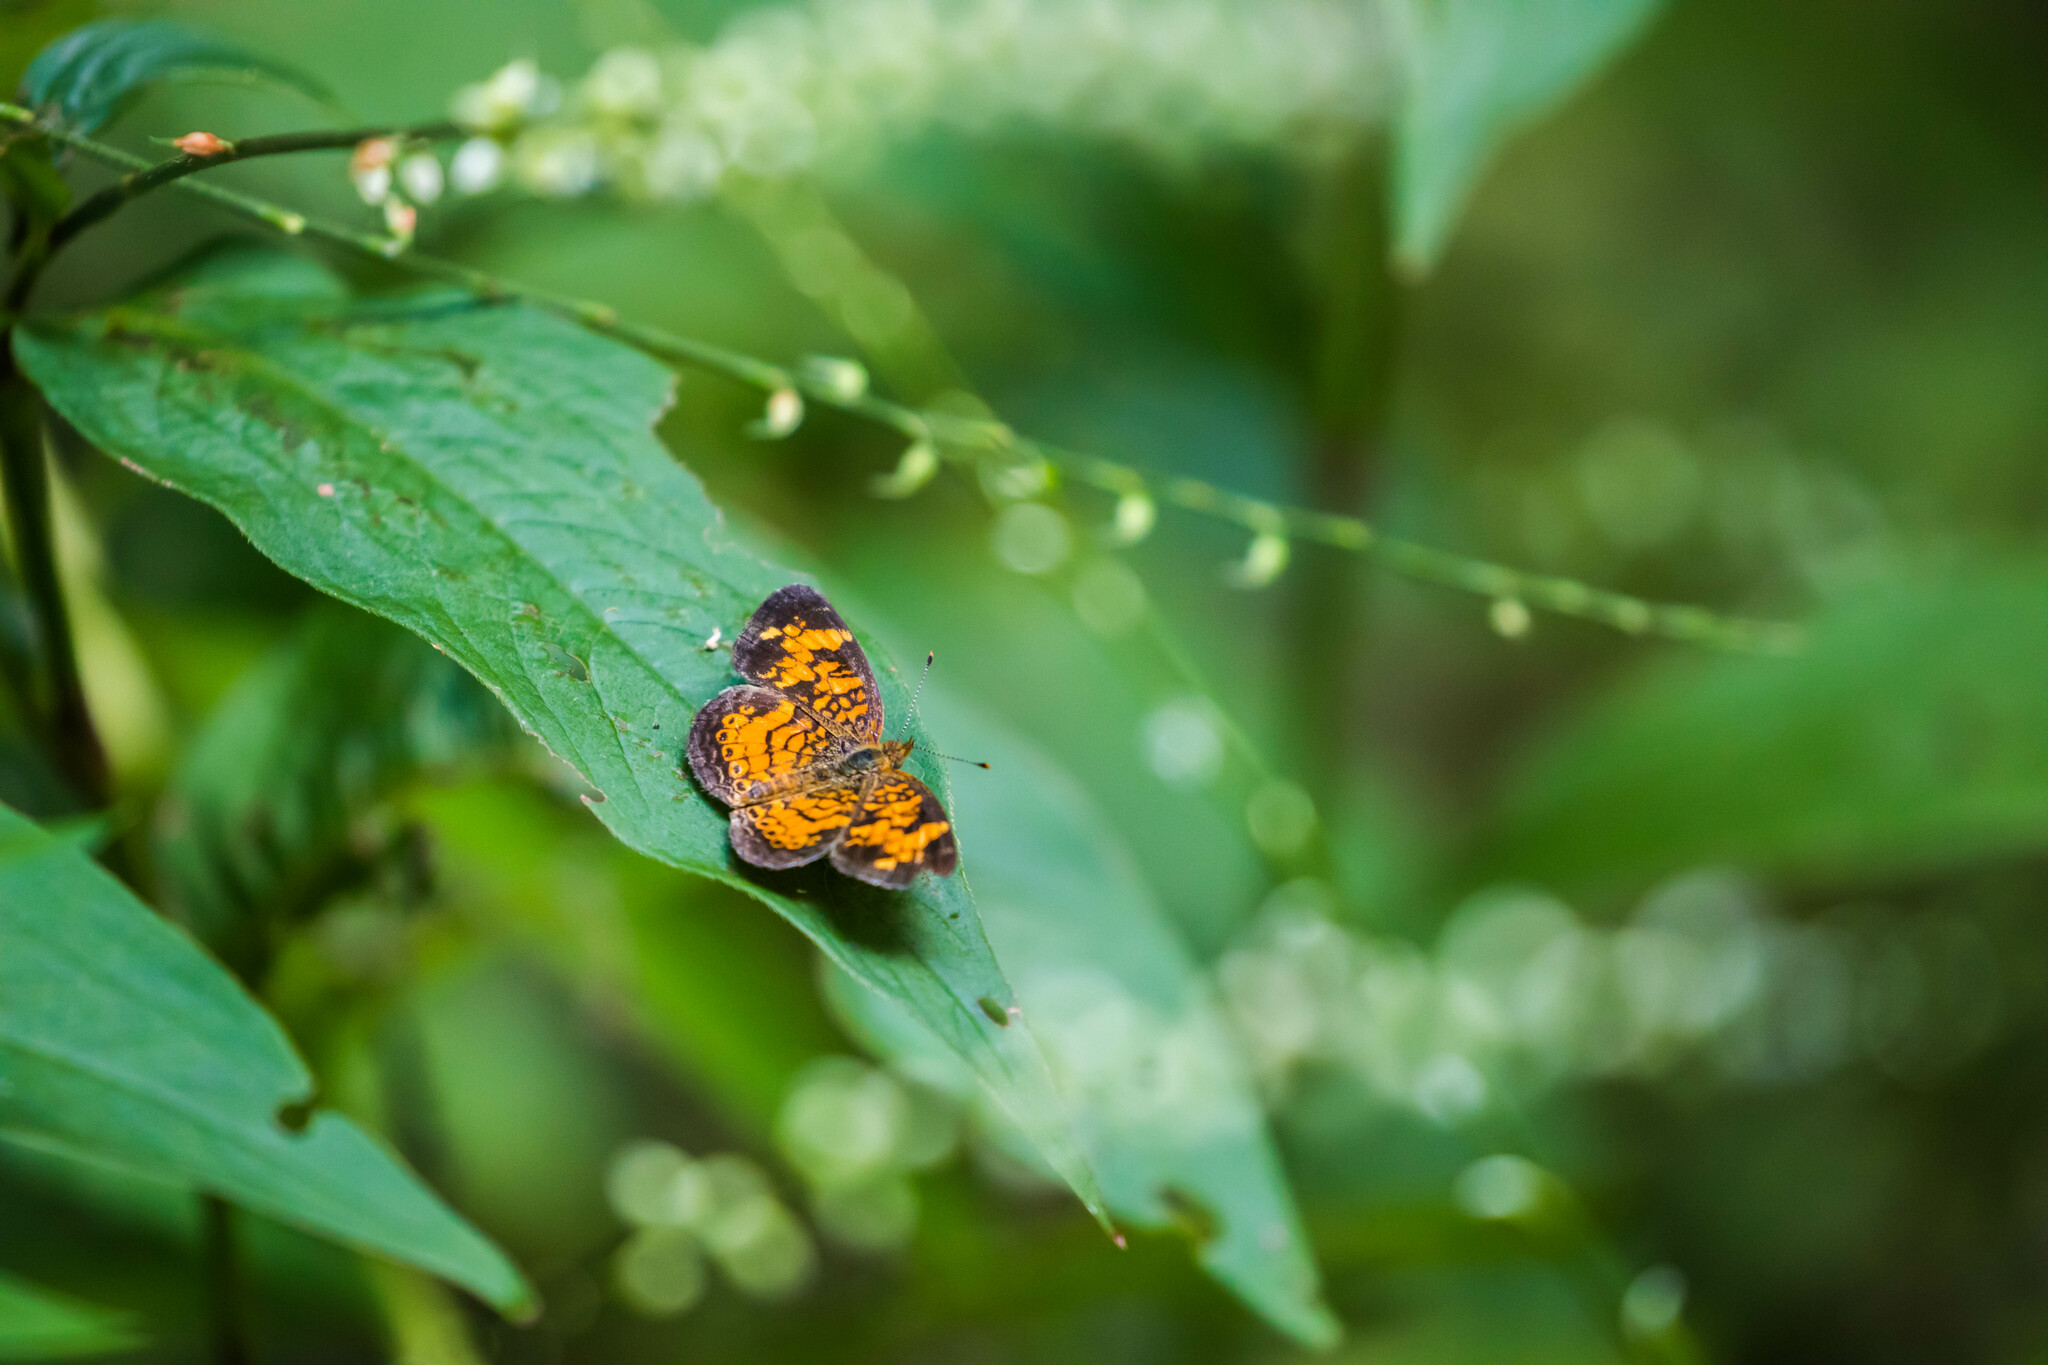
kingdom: Animalia
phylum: Arthropoda
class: Insecta
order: Lepidoptera
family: Nymphalidae
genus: Phyciodes
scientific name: Phyciodes tharos
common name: Pearl crescent
